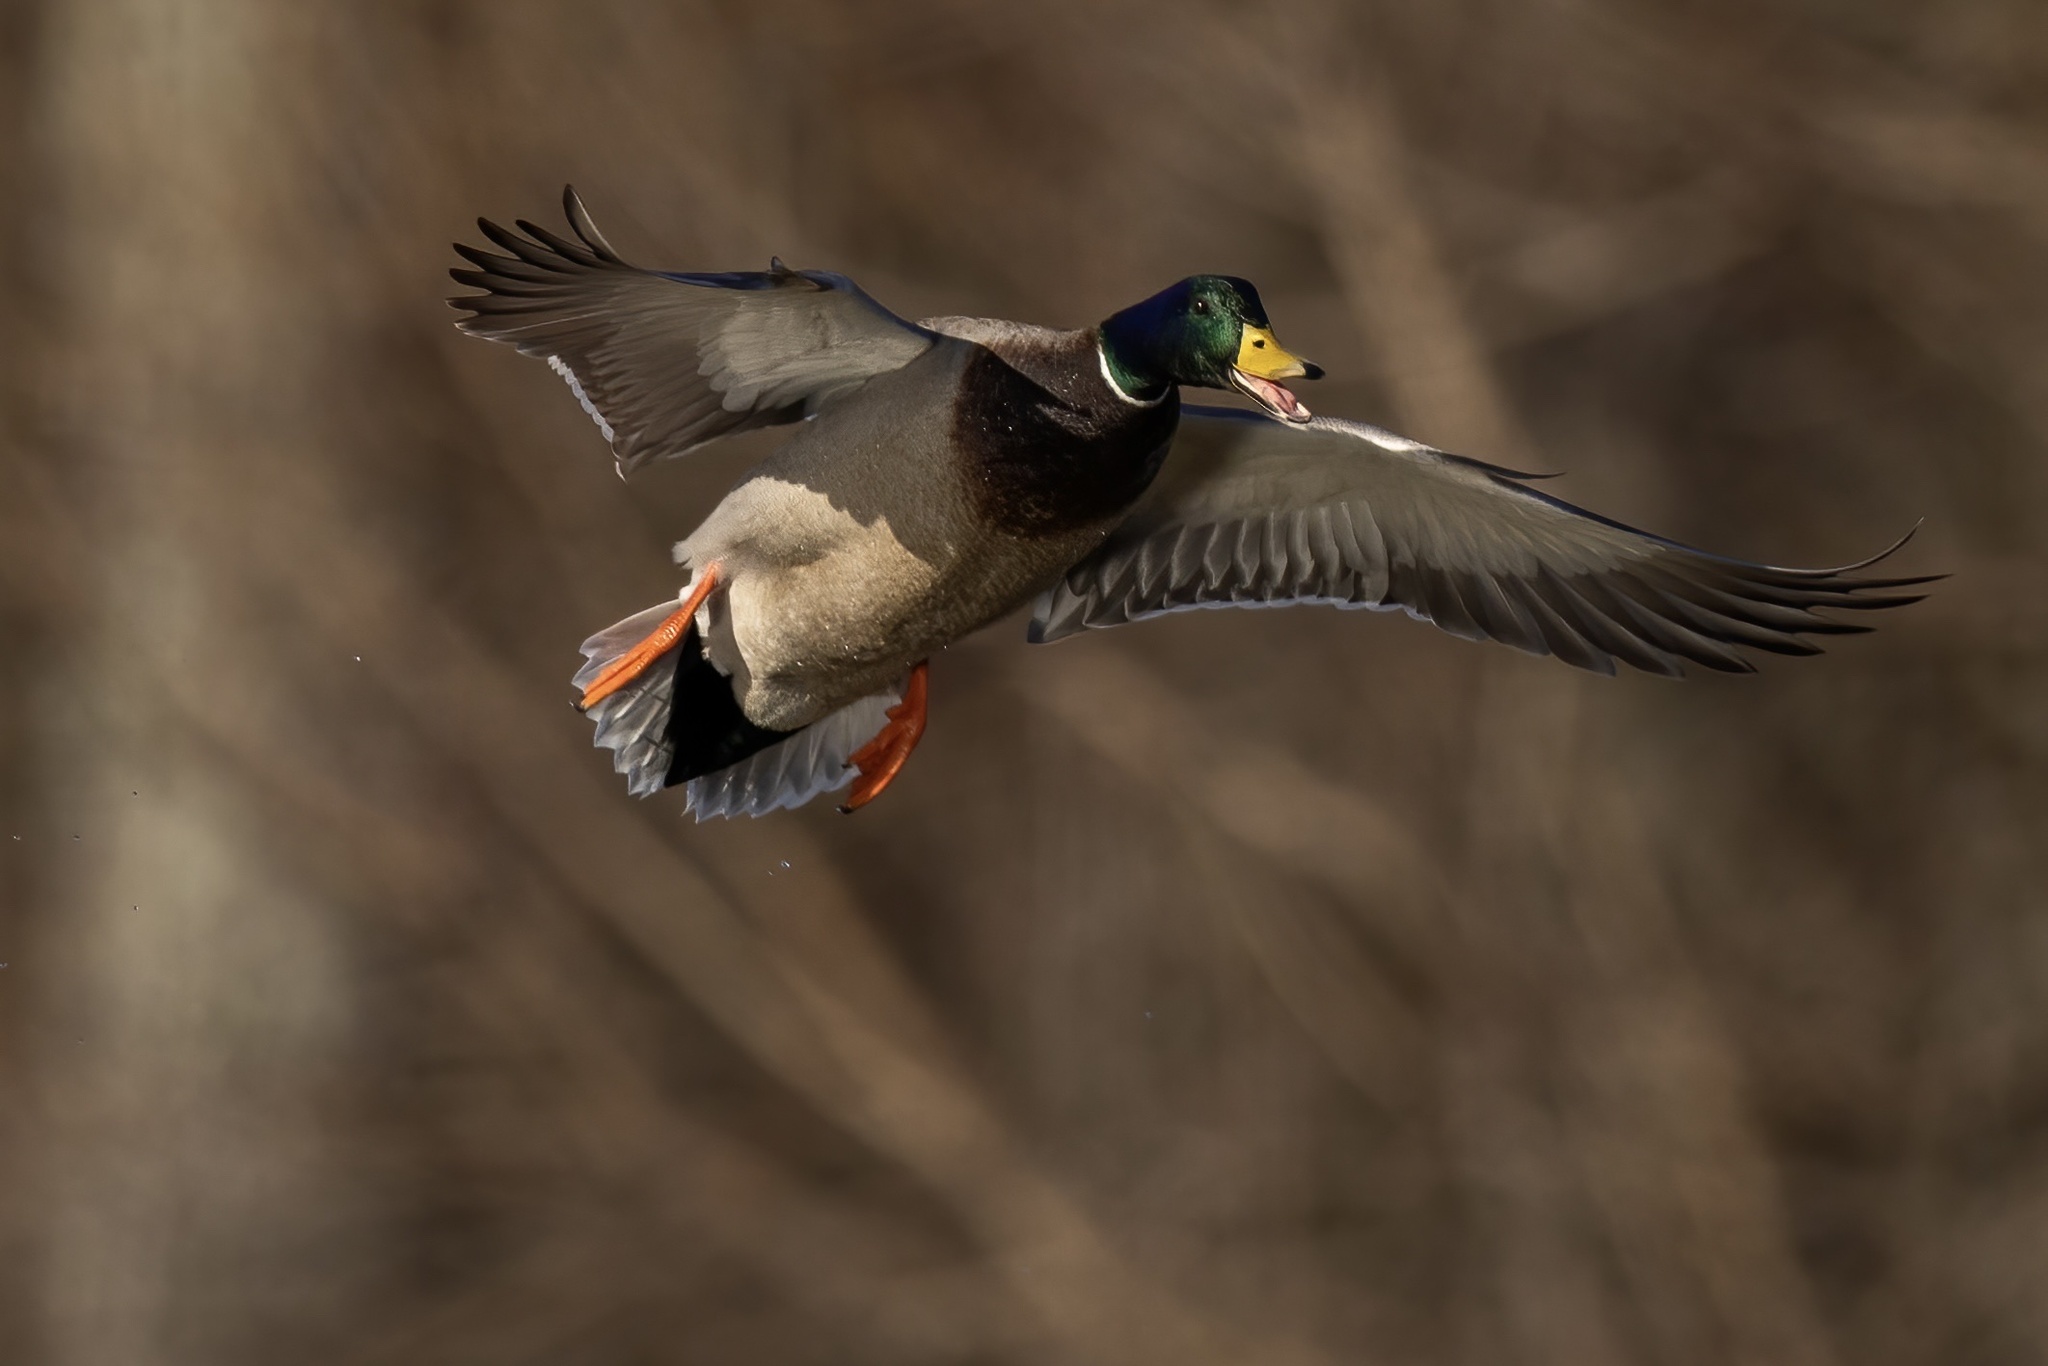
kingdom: Animalia
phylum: Chordata
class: Aves
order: Anseriformes
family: Anatidae
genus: Anas
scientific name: Anas platyrhynchos
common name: Mallard
